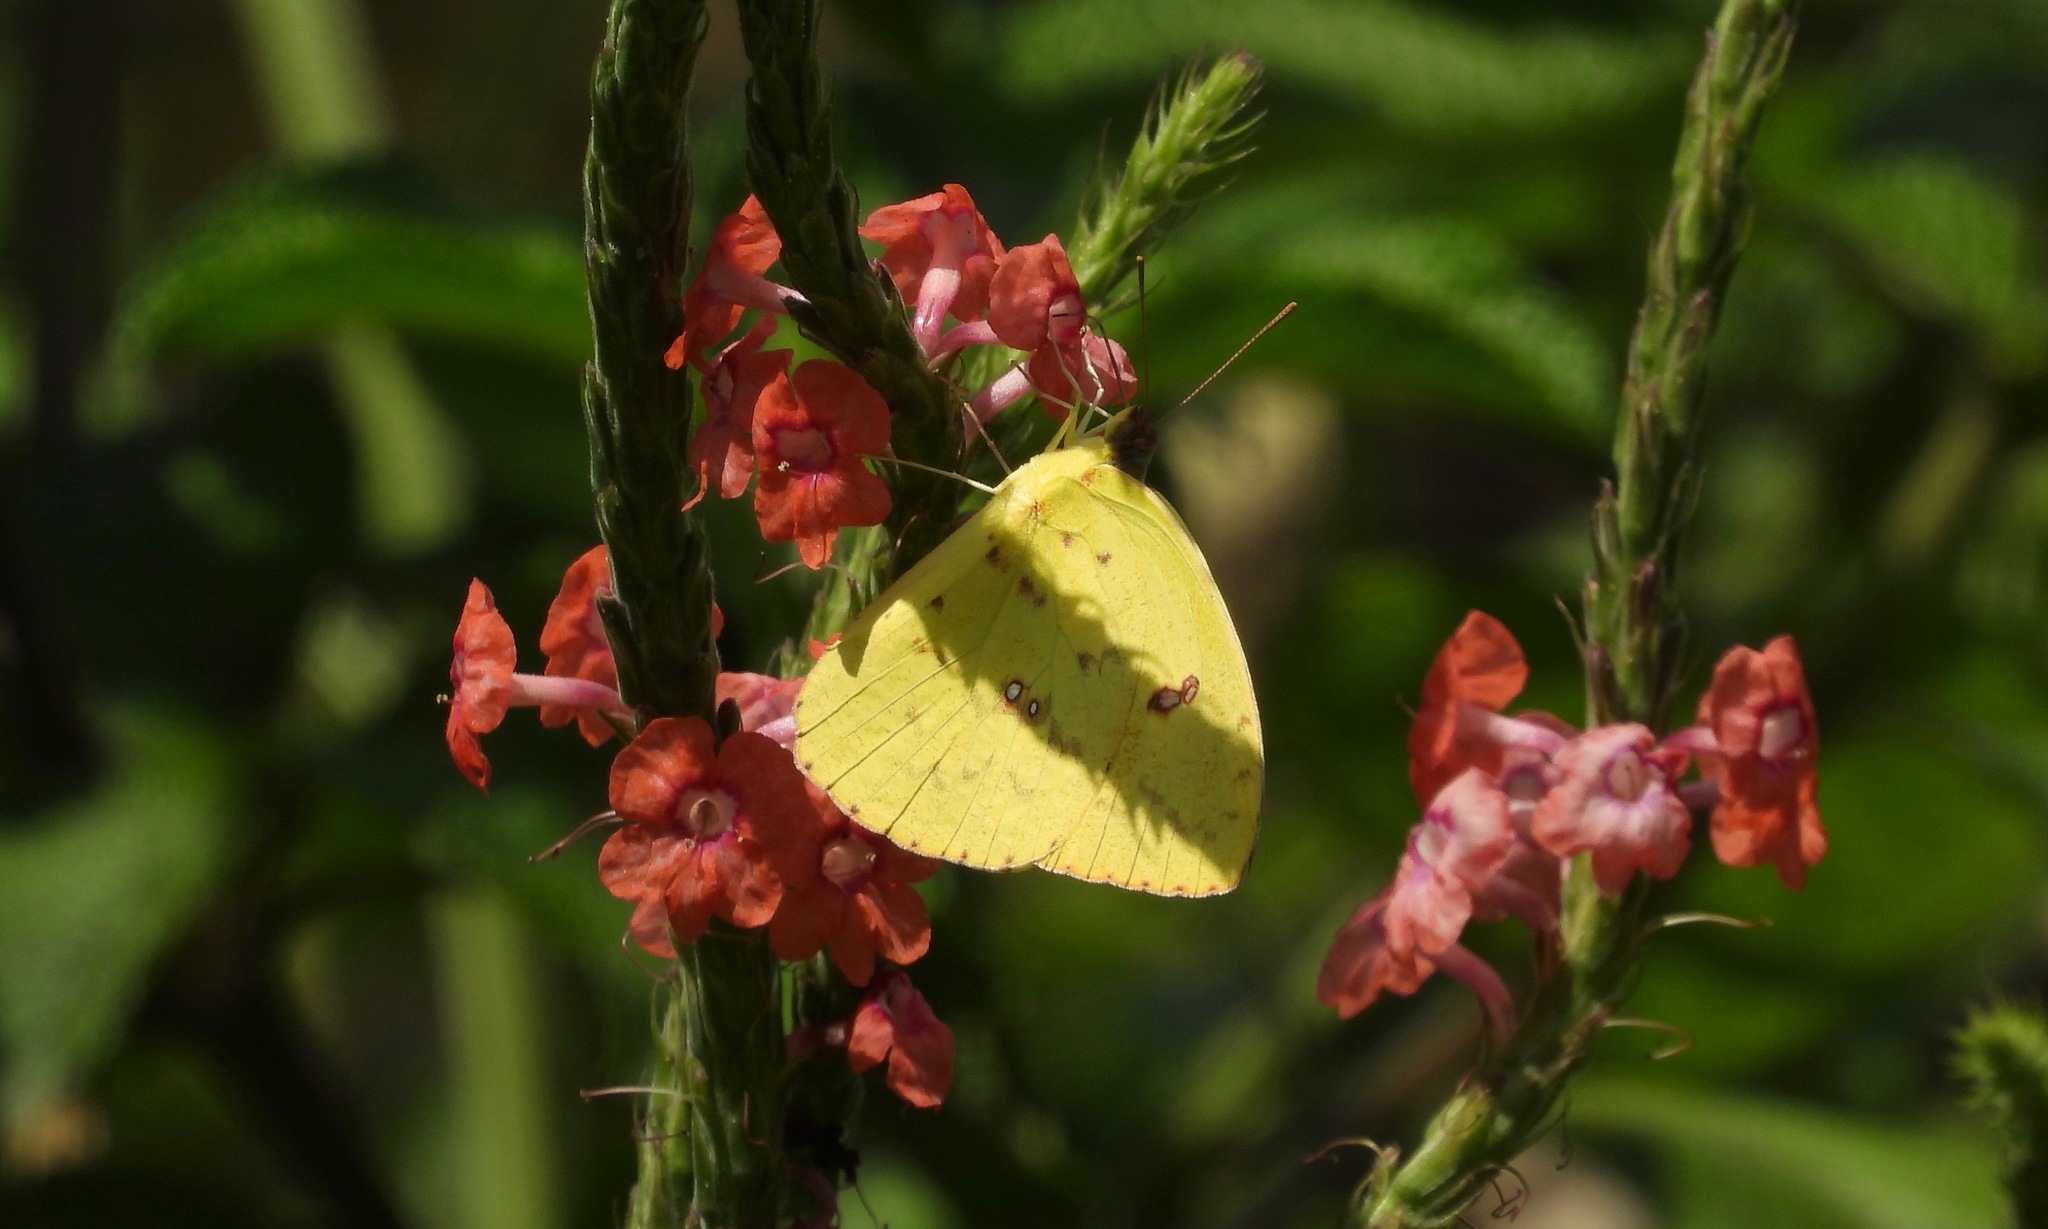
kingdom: Animalia
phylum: Arthropoda
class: Insecta
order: Lepidoptera
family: Pieridae
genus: Phoebis
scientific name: Phoebis sennae
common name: Cloudless sulphur
